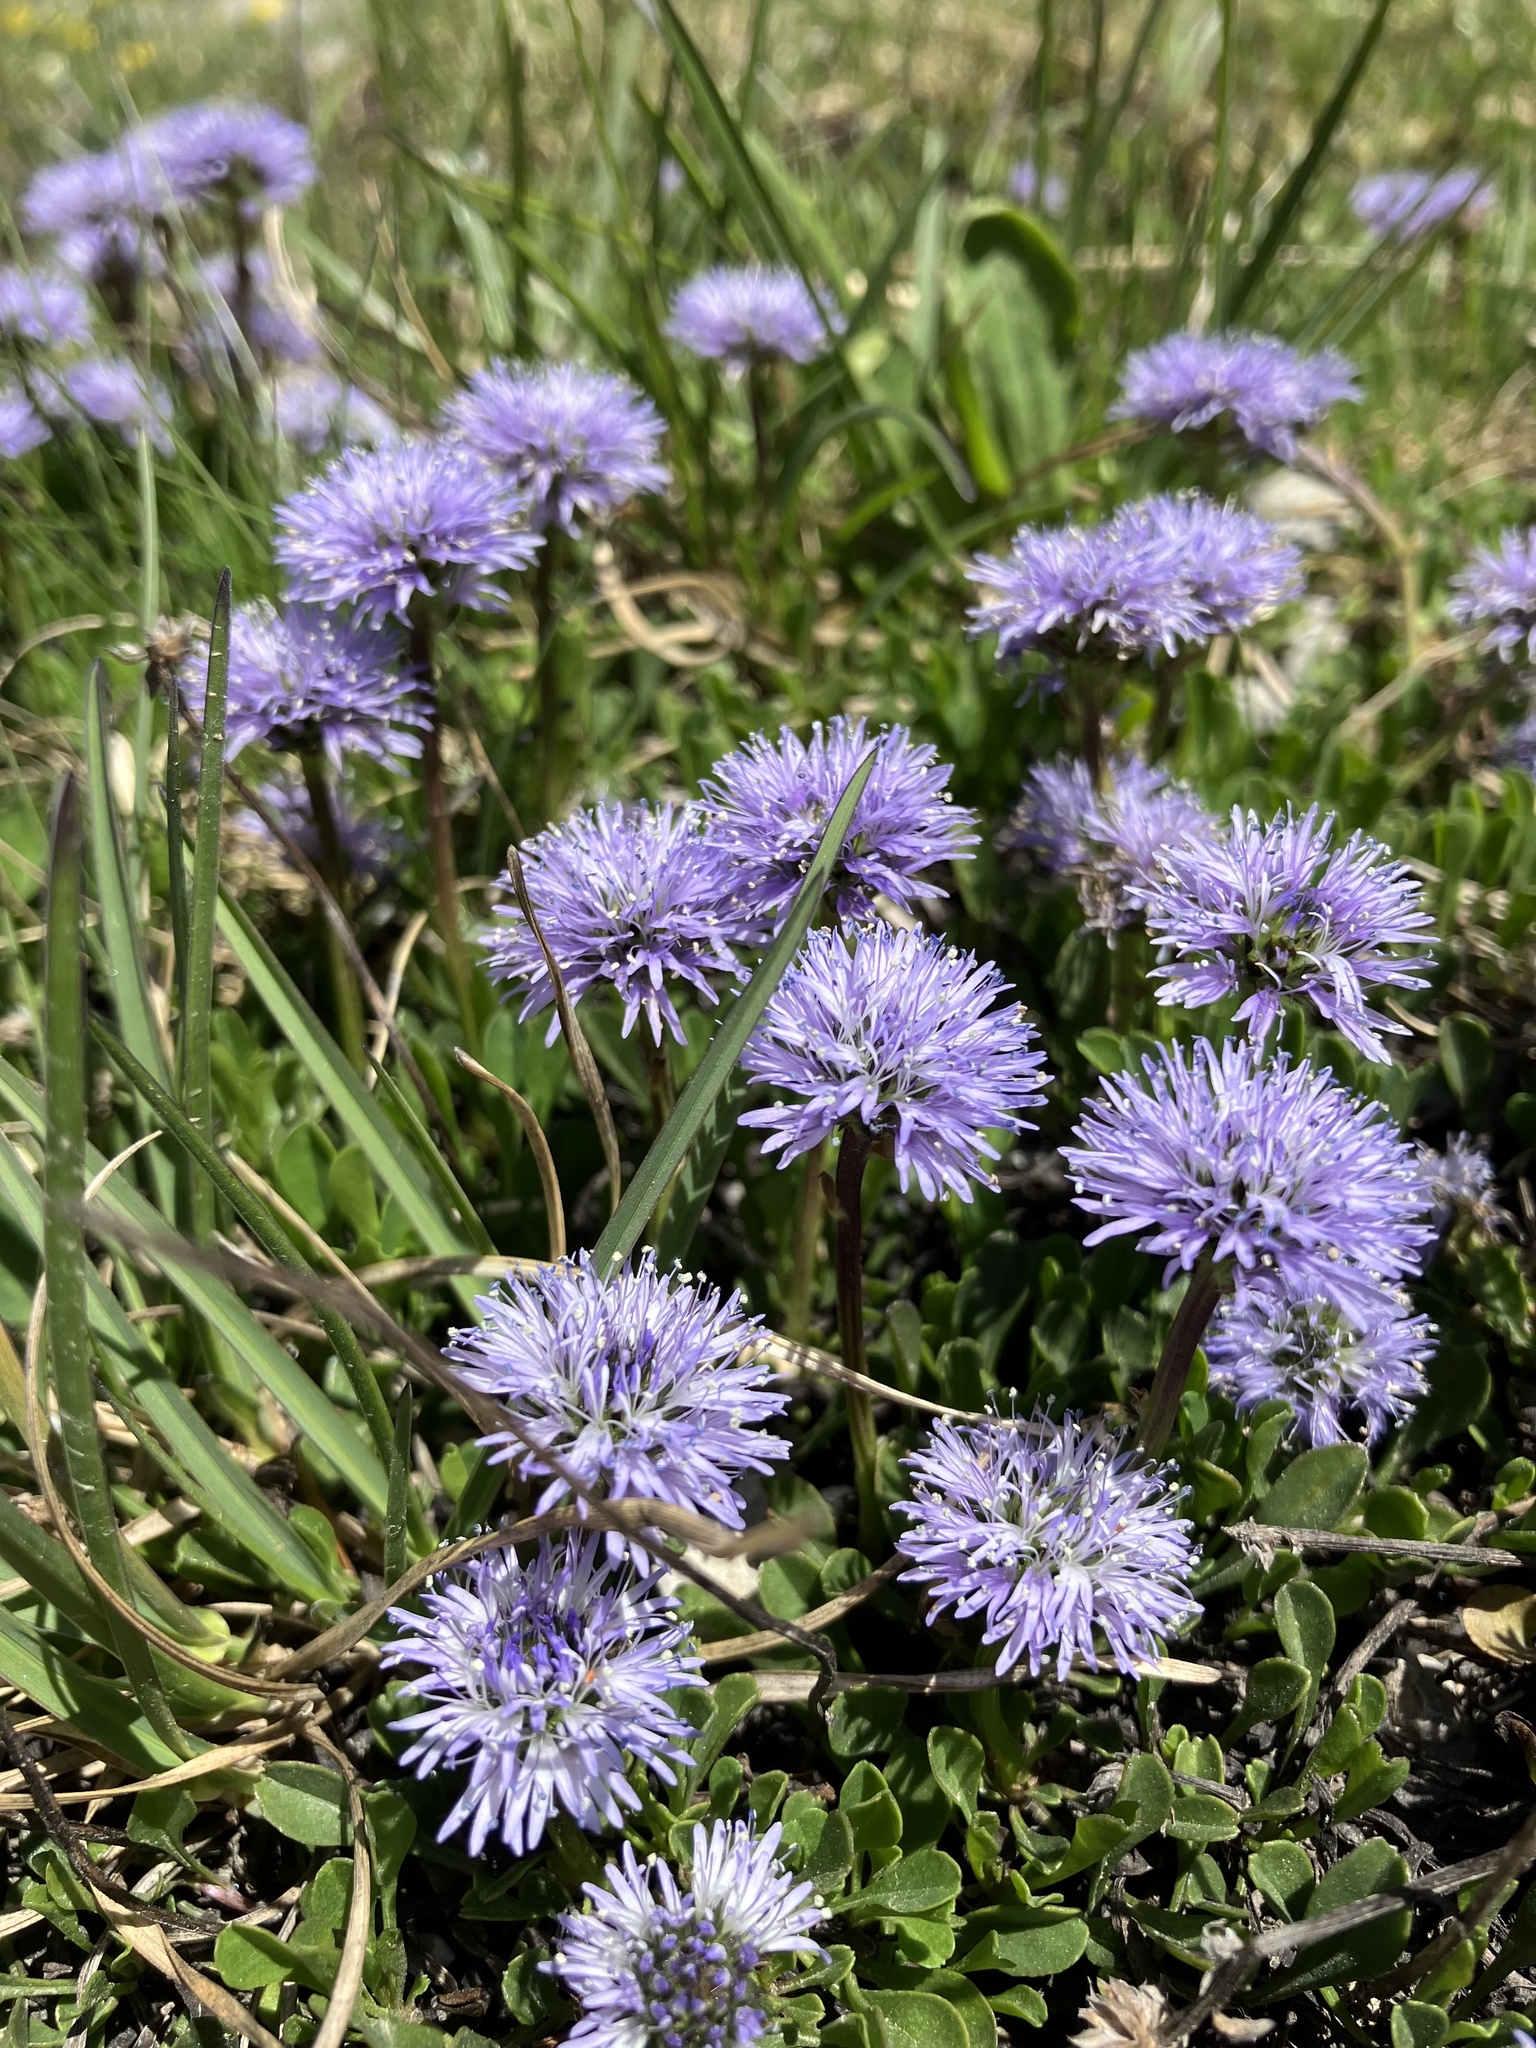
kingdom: Plantae
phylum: Tracheophyta
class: Magnoliopsida
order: Lamiales
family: Plantaginaceae
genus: Globularia
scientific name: Globularia cordifolia
